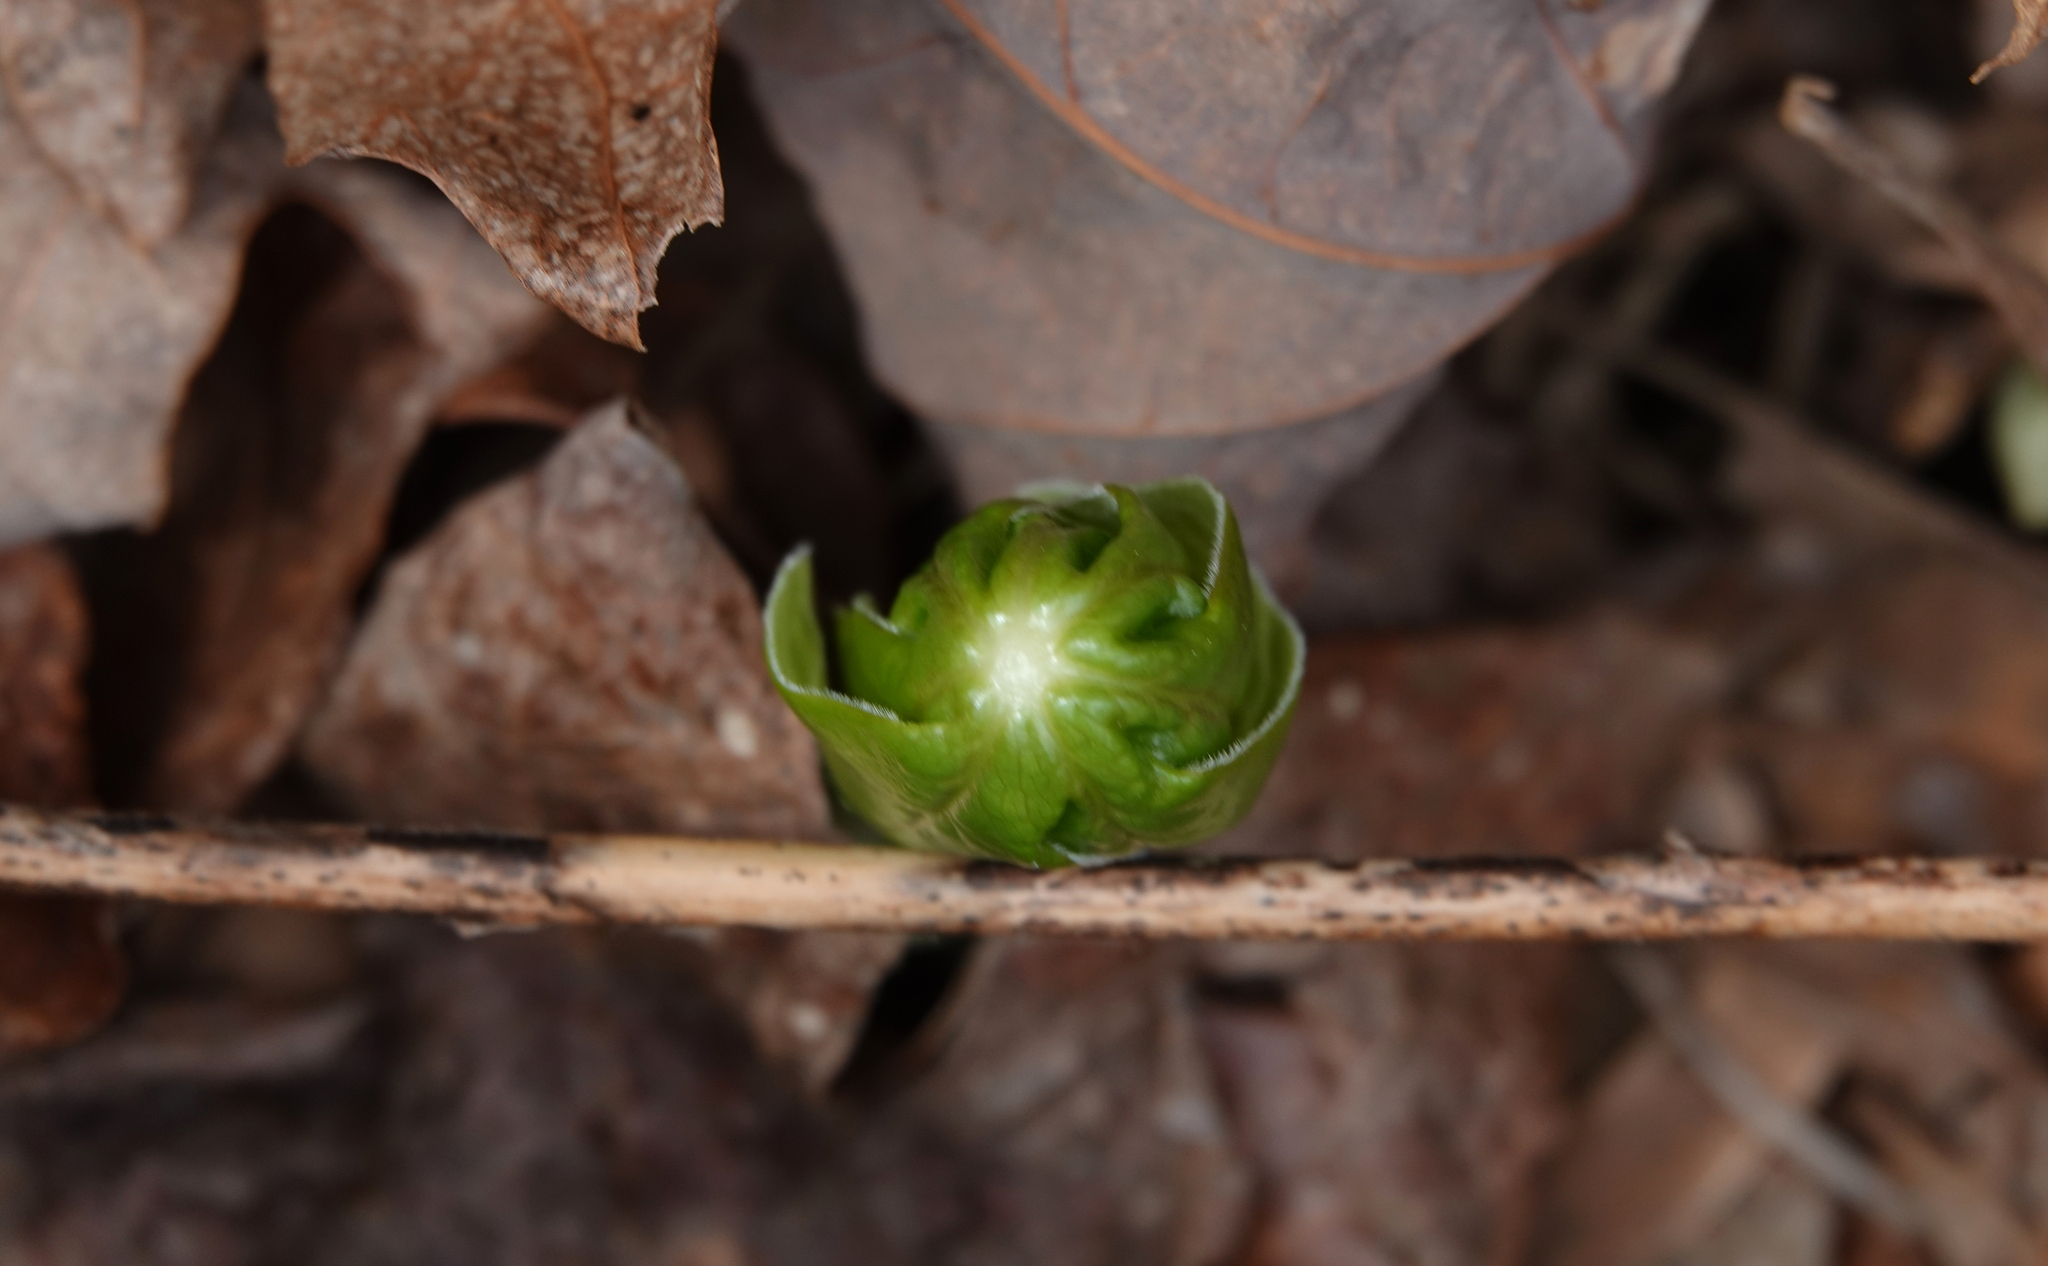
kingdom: Plantae
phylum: Tracheophyta
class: Magnoliopsida
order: Ranunculales
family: Berberidaceae
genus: Podophyllum
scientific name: Podophyllum peltatum
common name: Wild mandrake
